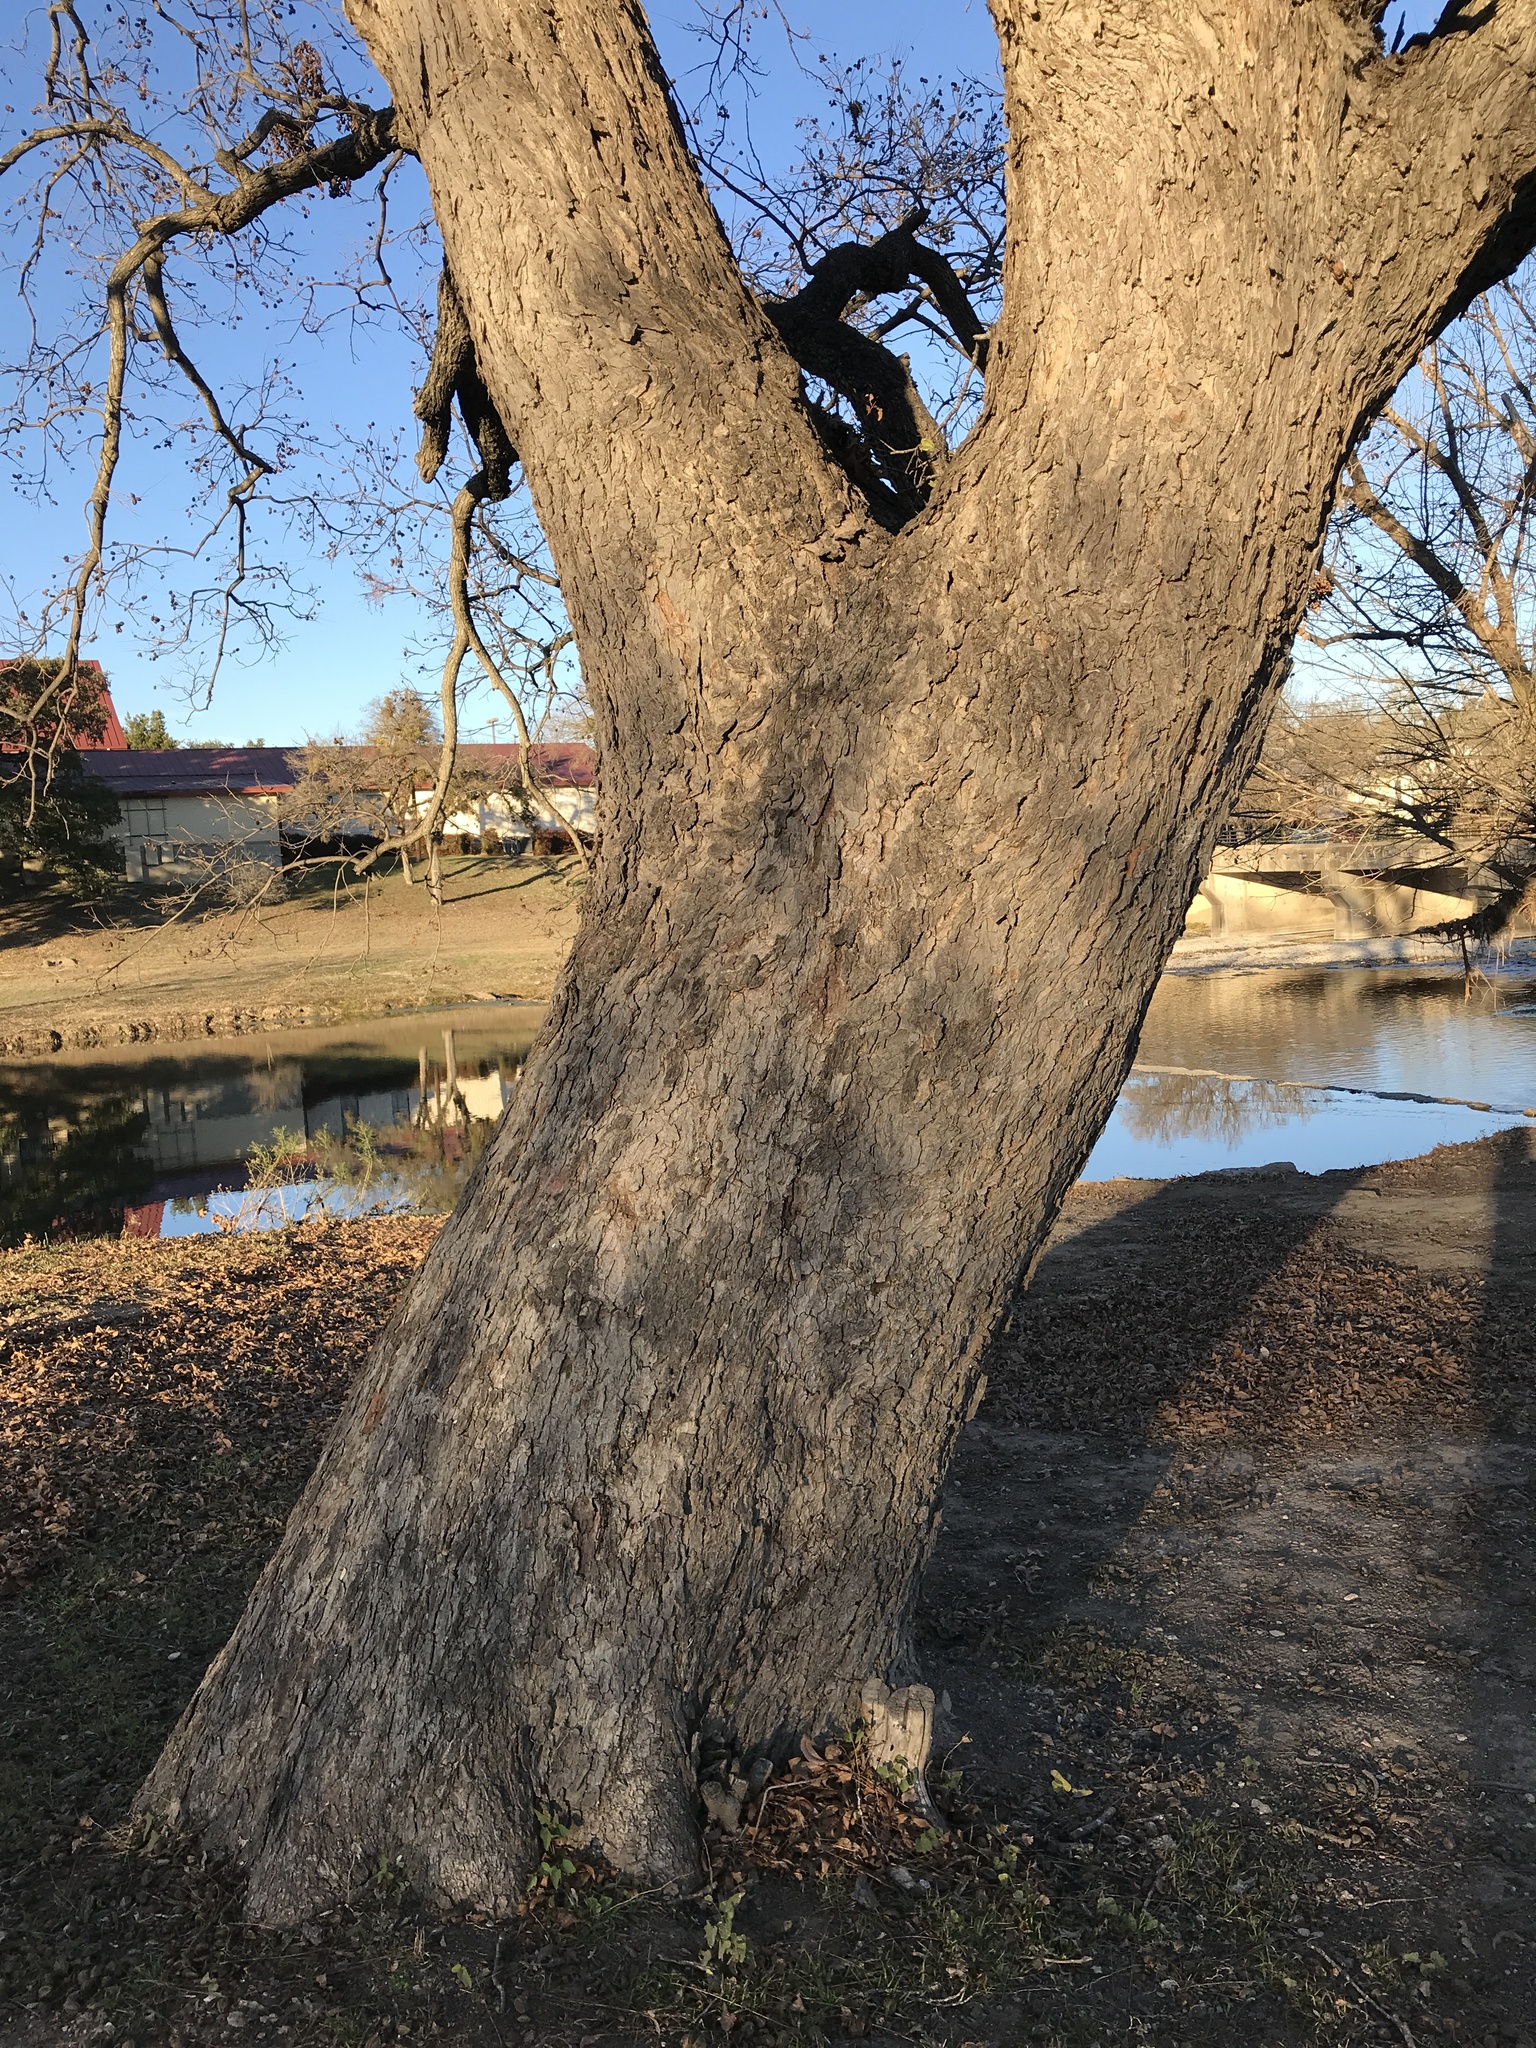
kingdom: Plantae
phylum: Tracheophyta
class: Magnoliopsida
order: Fagales
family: Juglandaceae
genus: Carya
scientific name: Carya illinoinensis
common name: Pecan
